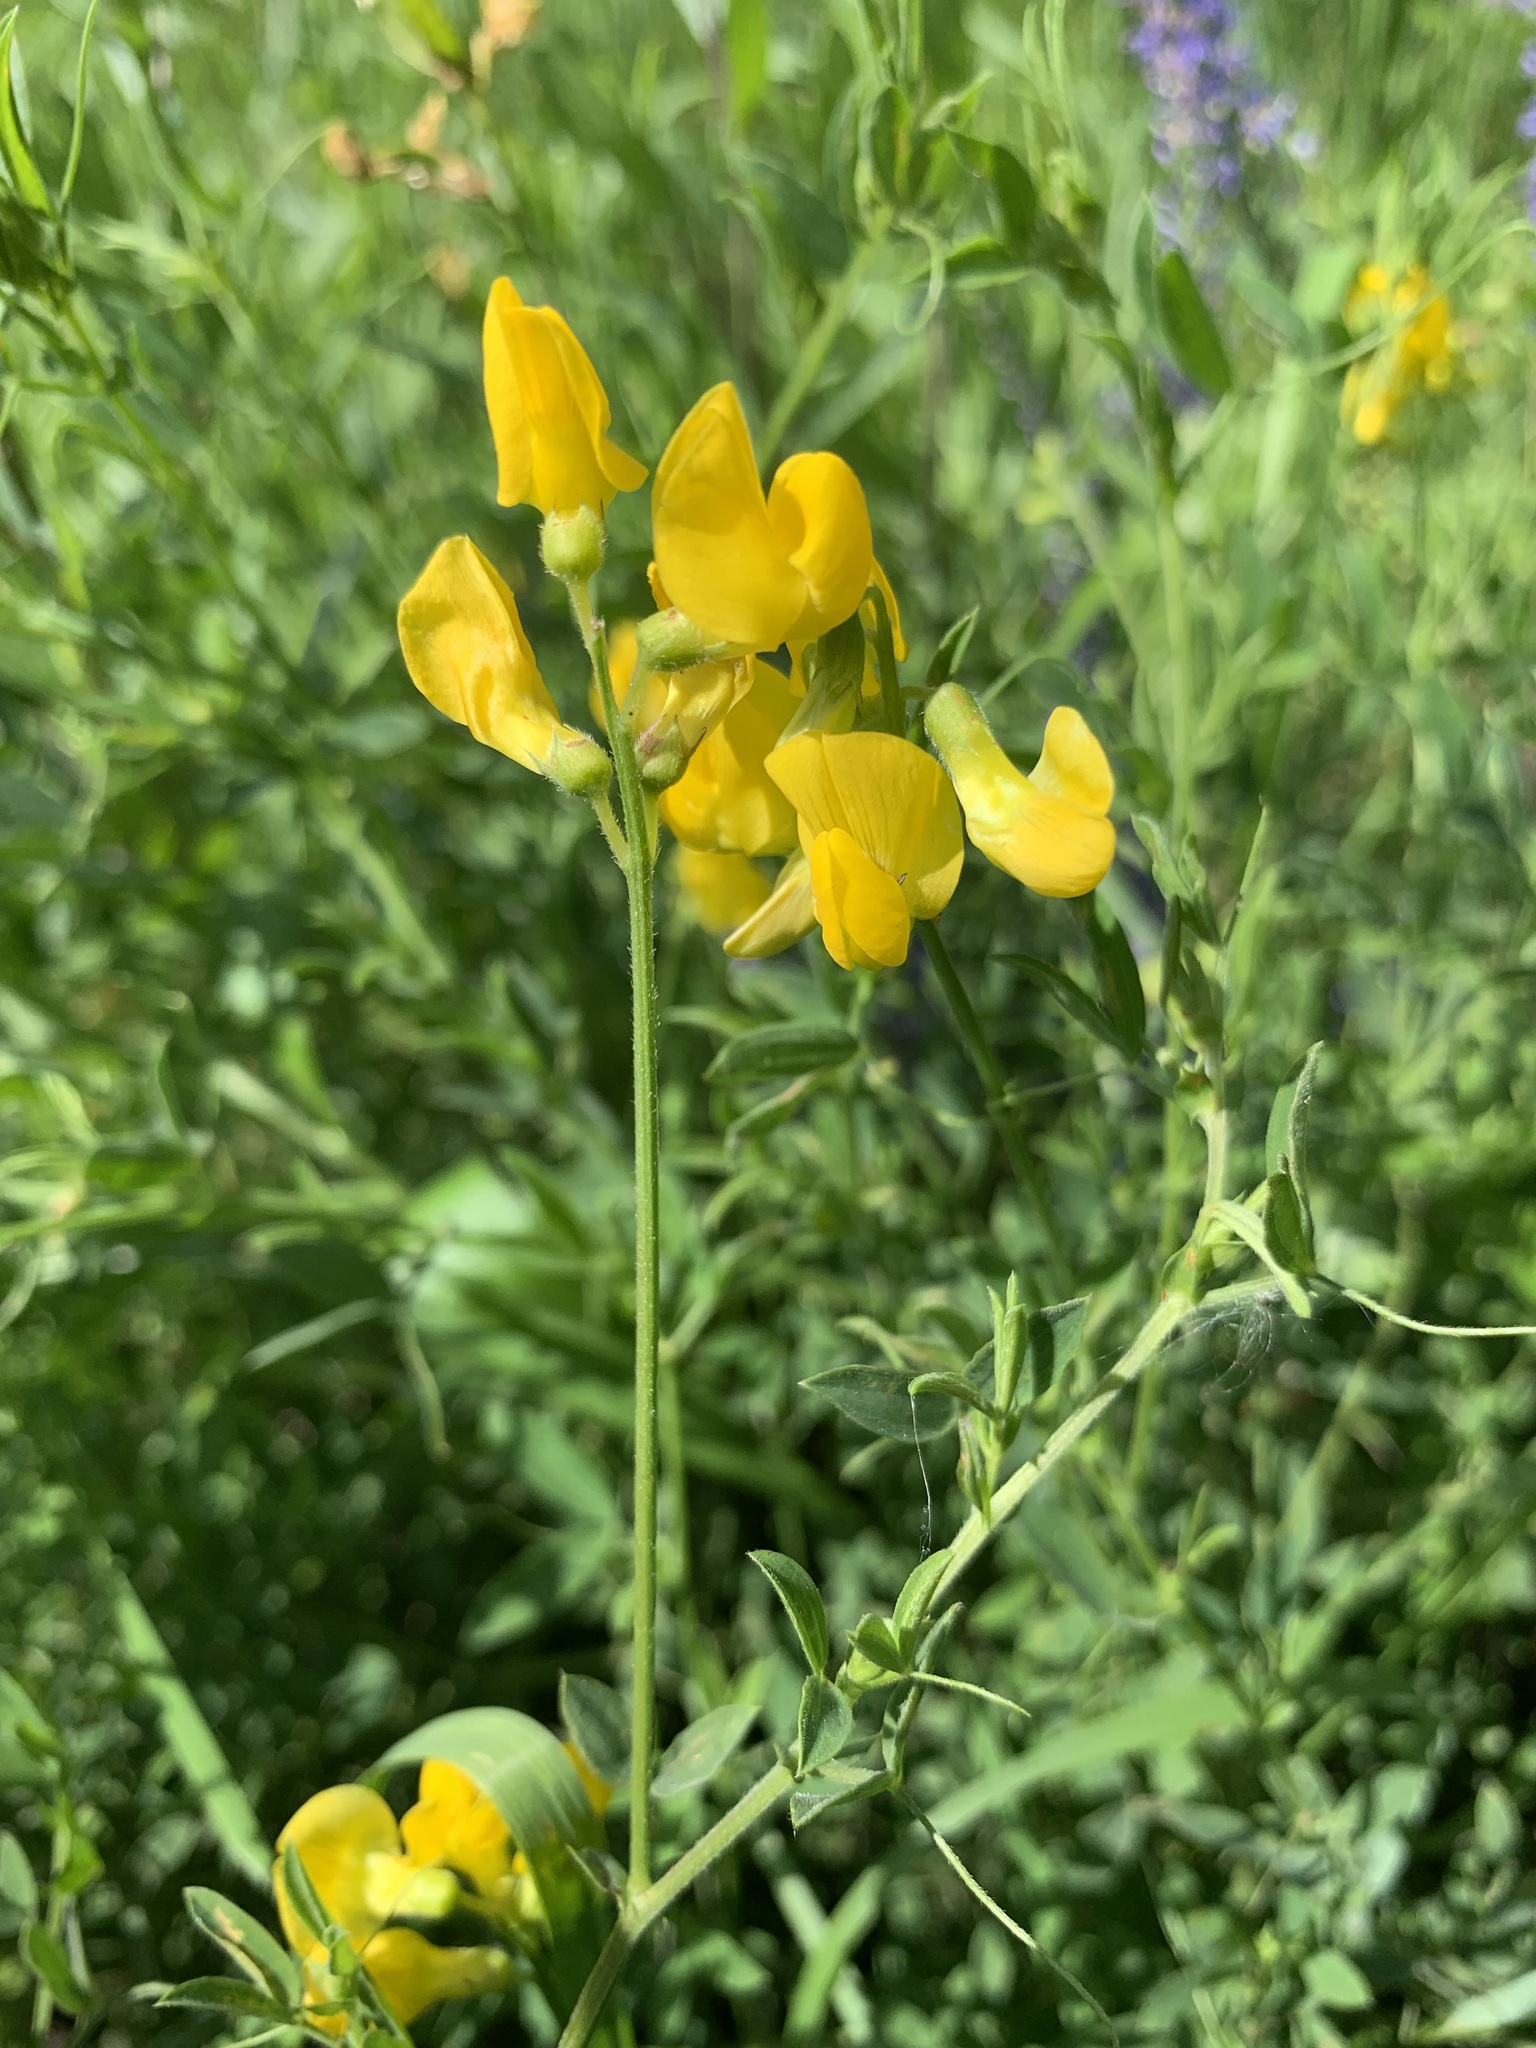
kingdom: Plantae
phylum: Tracheophyta
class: Magnoliopsida
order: Fabales
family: Fabaceae
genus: Lathyrus
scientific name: Lathyrus pratensis
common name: Meadow vetchling
